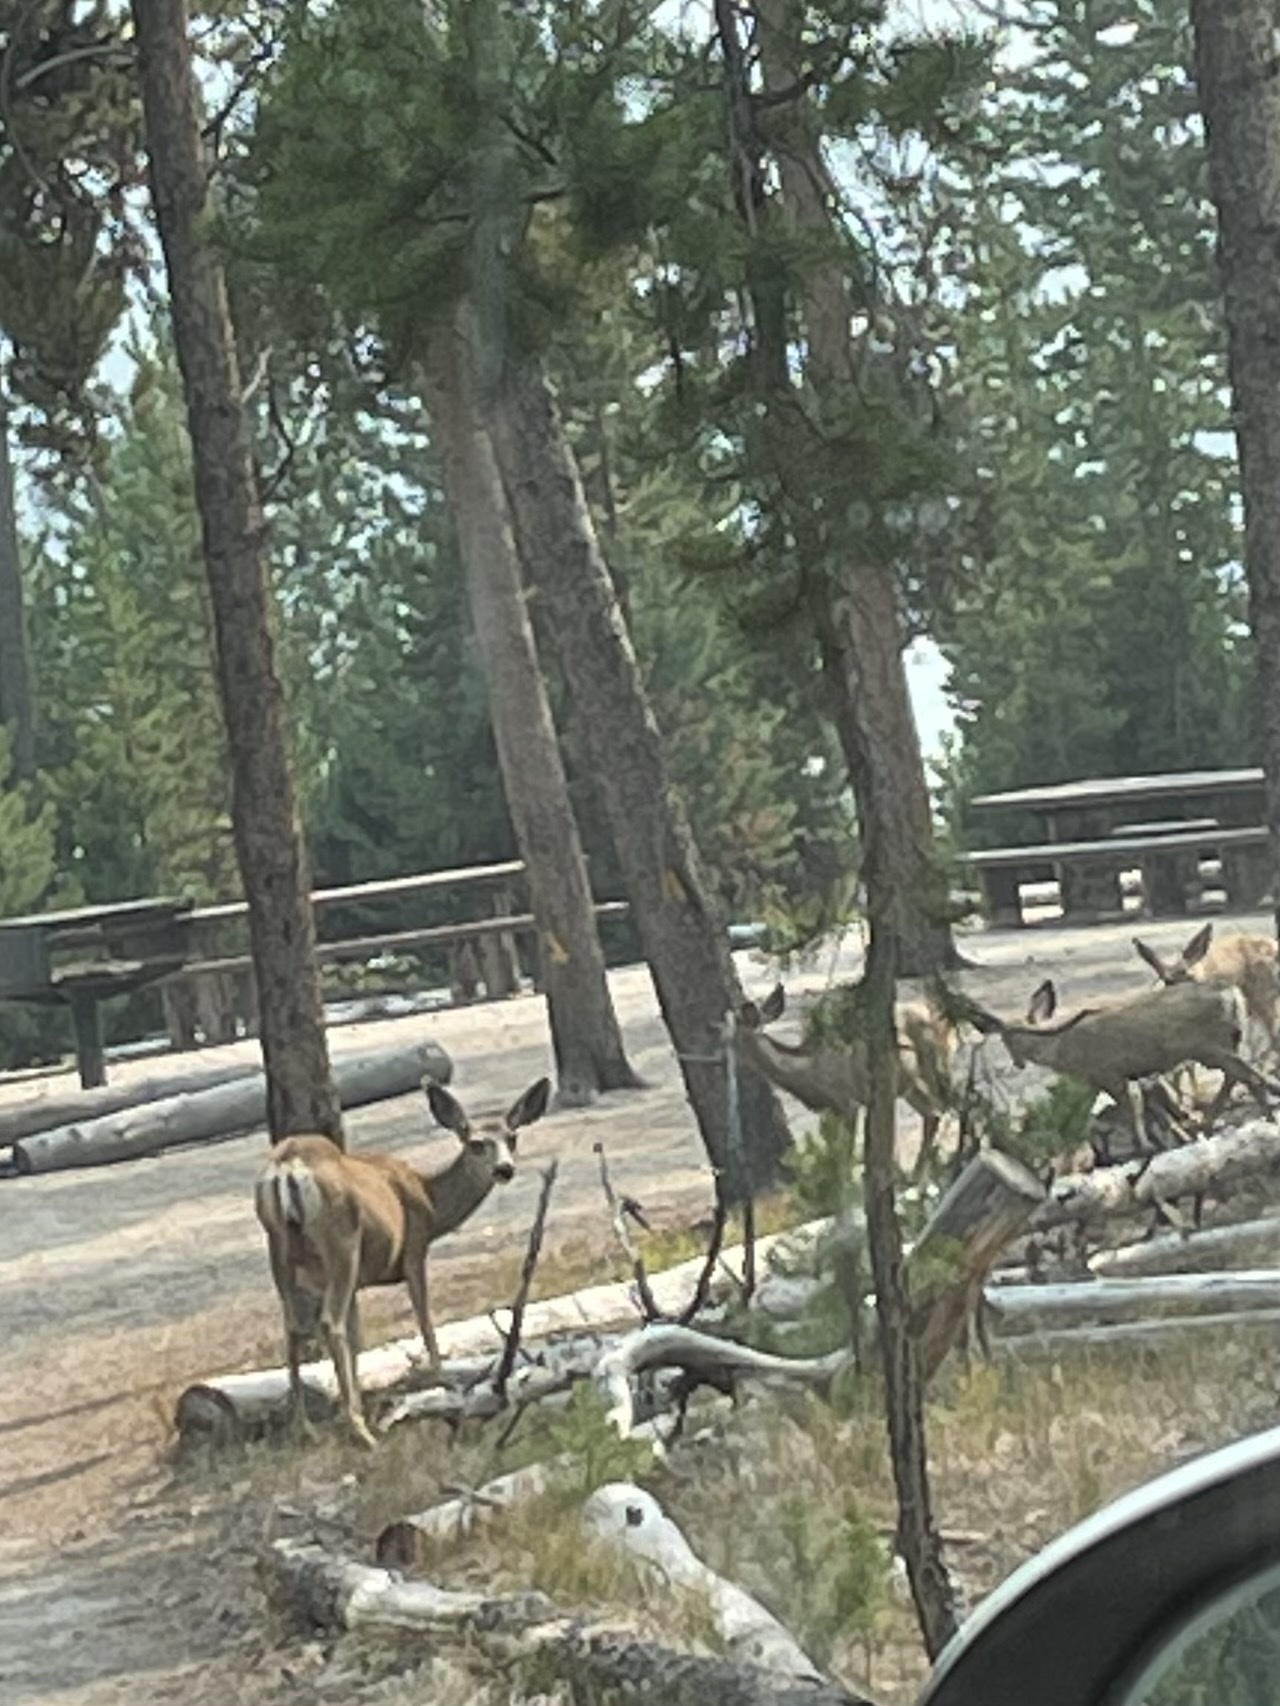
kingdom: Animalia
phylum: Chordata
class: Mammalia
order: Artiodactyla
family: Cervidae
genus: Odocoileus
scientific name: Odocoileus hemionus
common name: Mule deer
